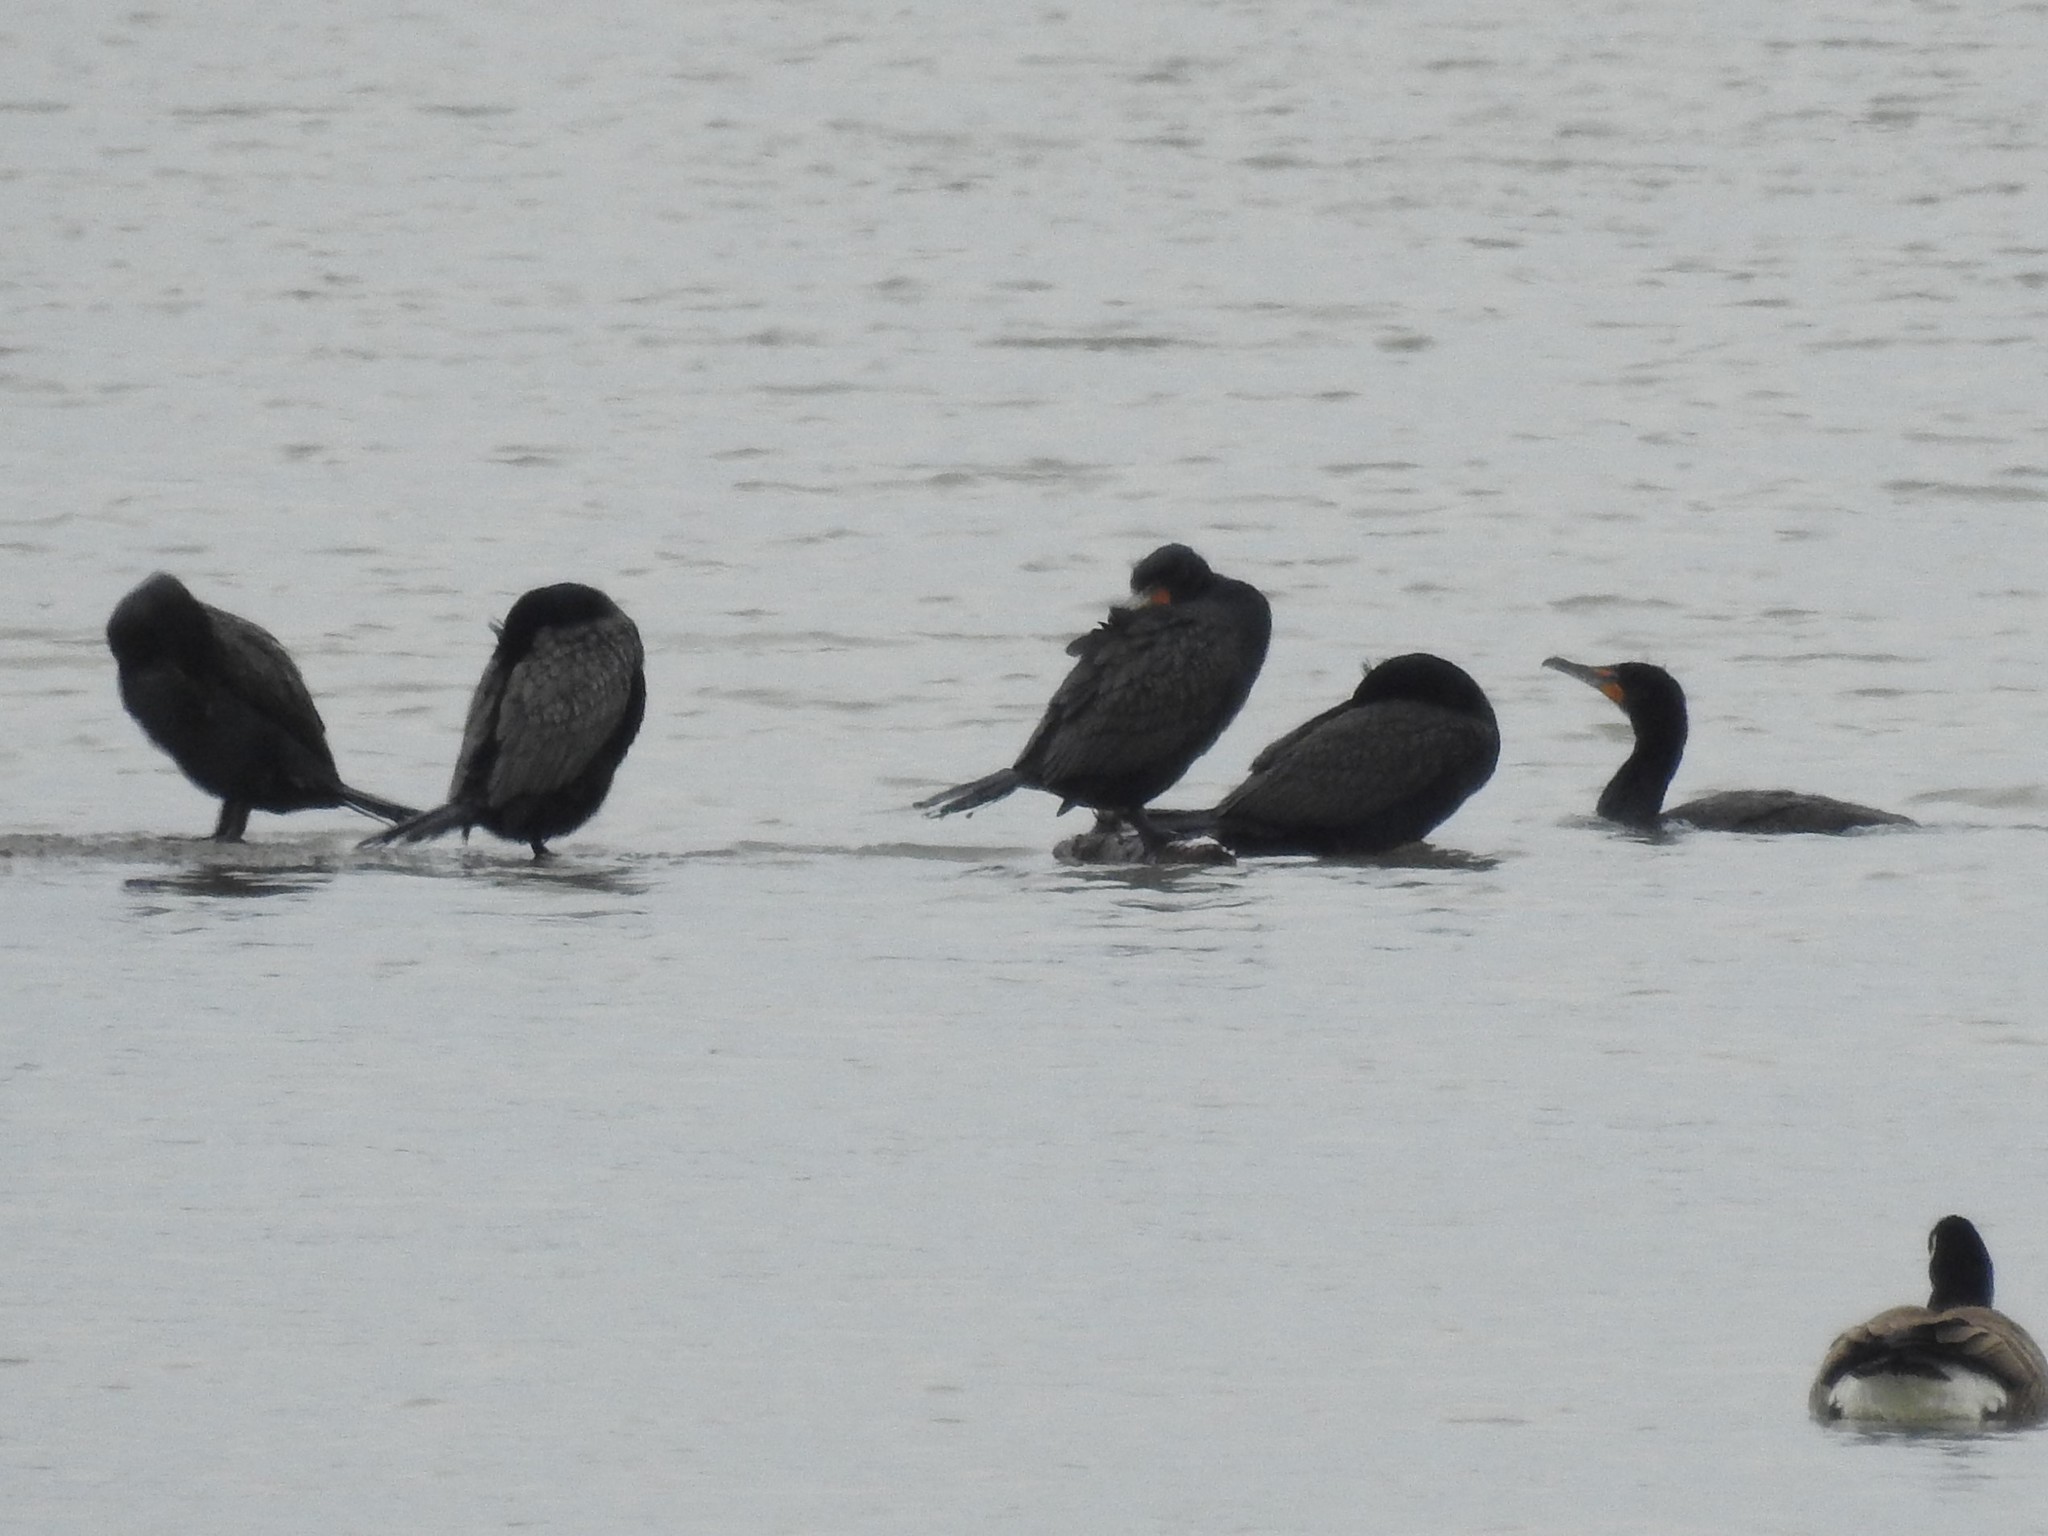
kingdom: Animalia
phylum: Chordata
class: Aves
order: Suliformes
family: Phalacrocoracidae
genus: Phalacrocorax
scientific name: Phalacrocorax auritus
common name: Double-crested cormorant
